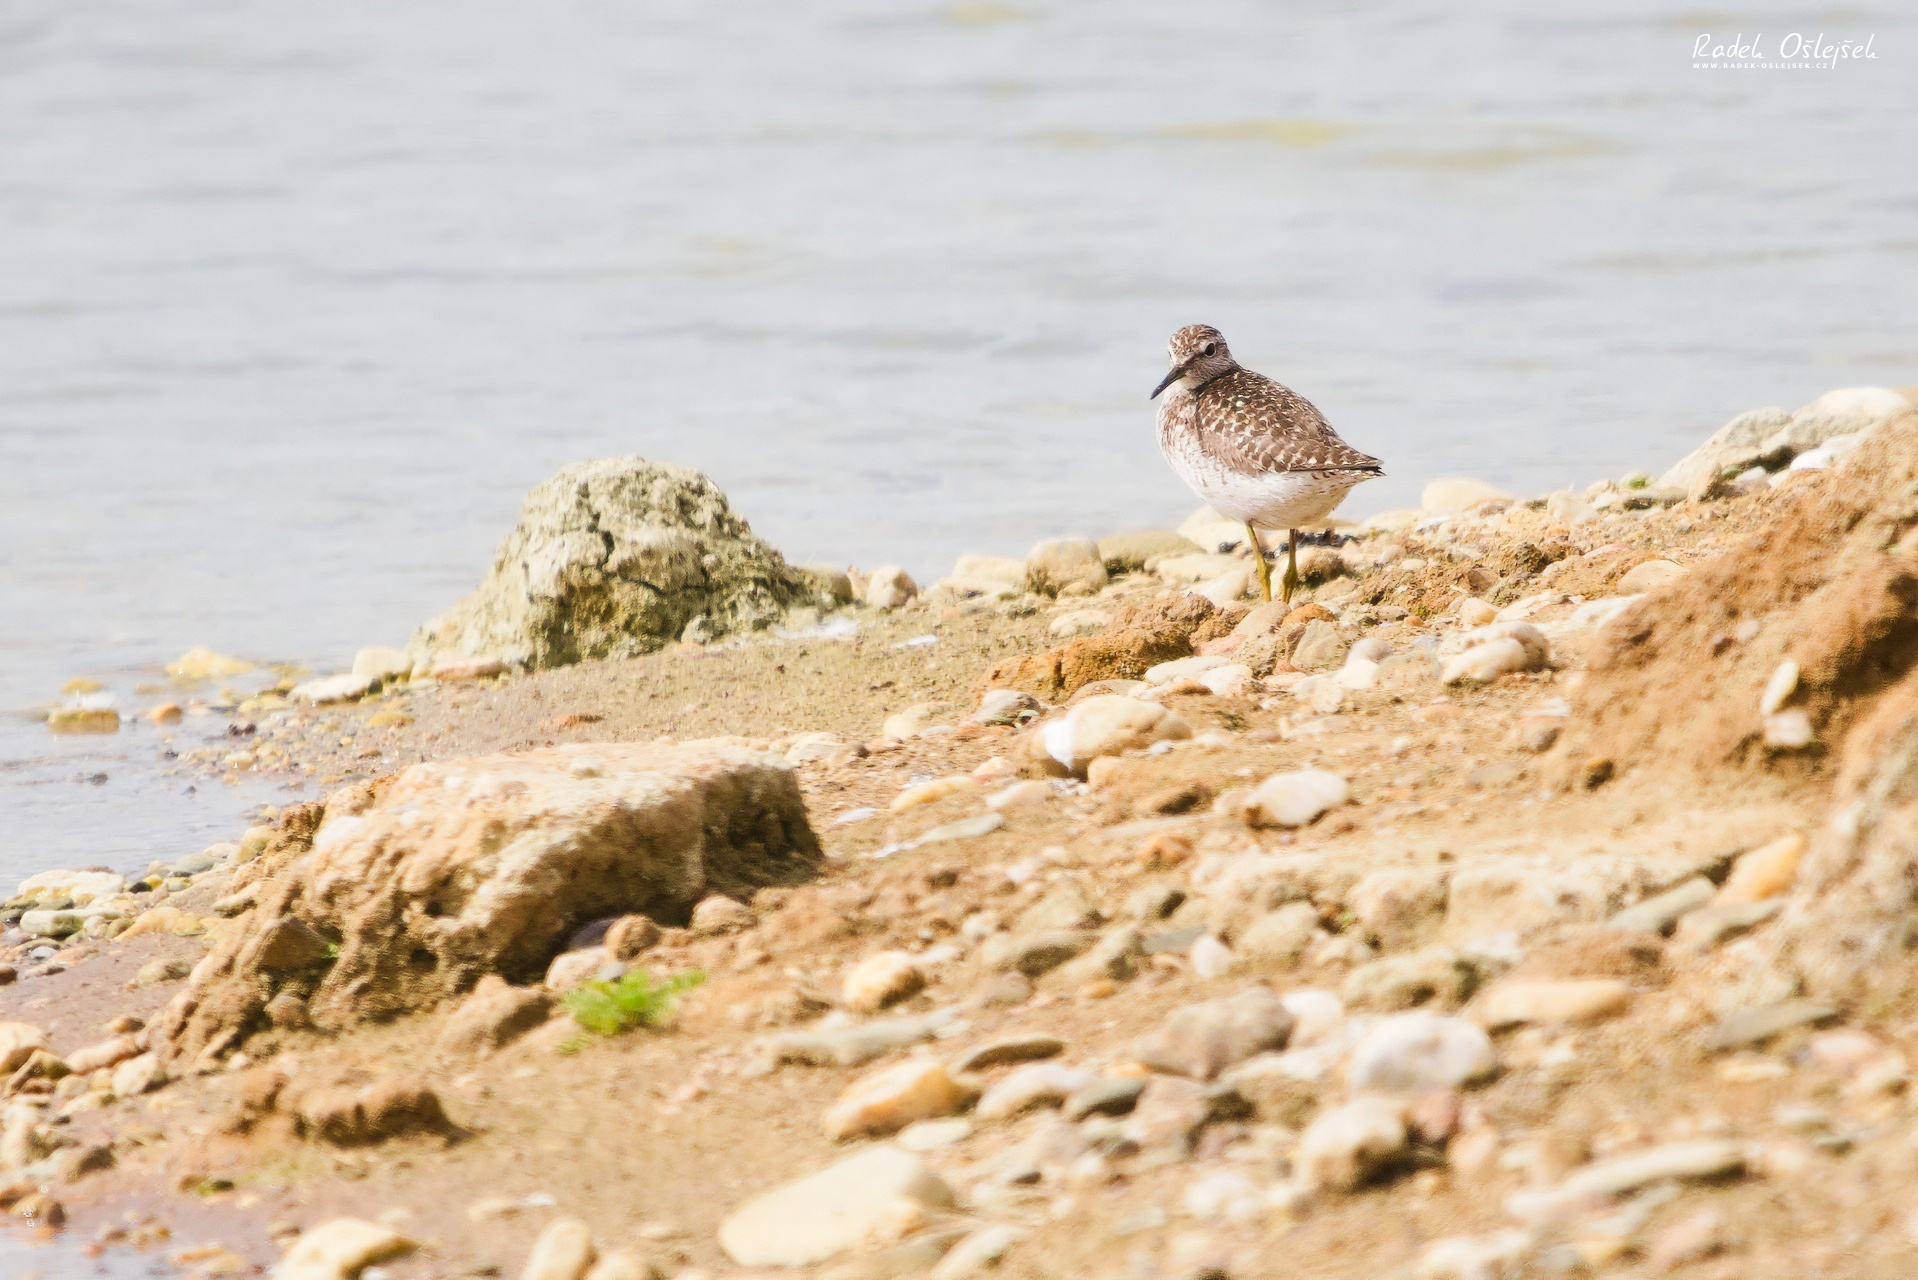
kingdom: Animalia
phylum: Chordata
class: Aves
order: Charadriiformes
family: Scolopacidae
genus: Tringa
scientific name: Tringa glareola
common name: Wood sandpiper
